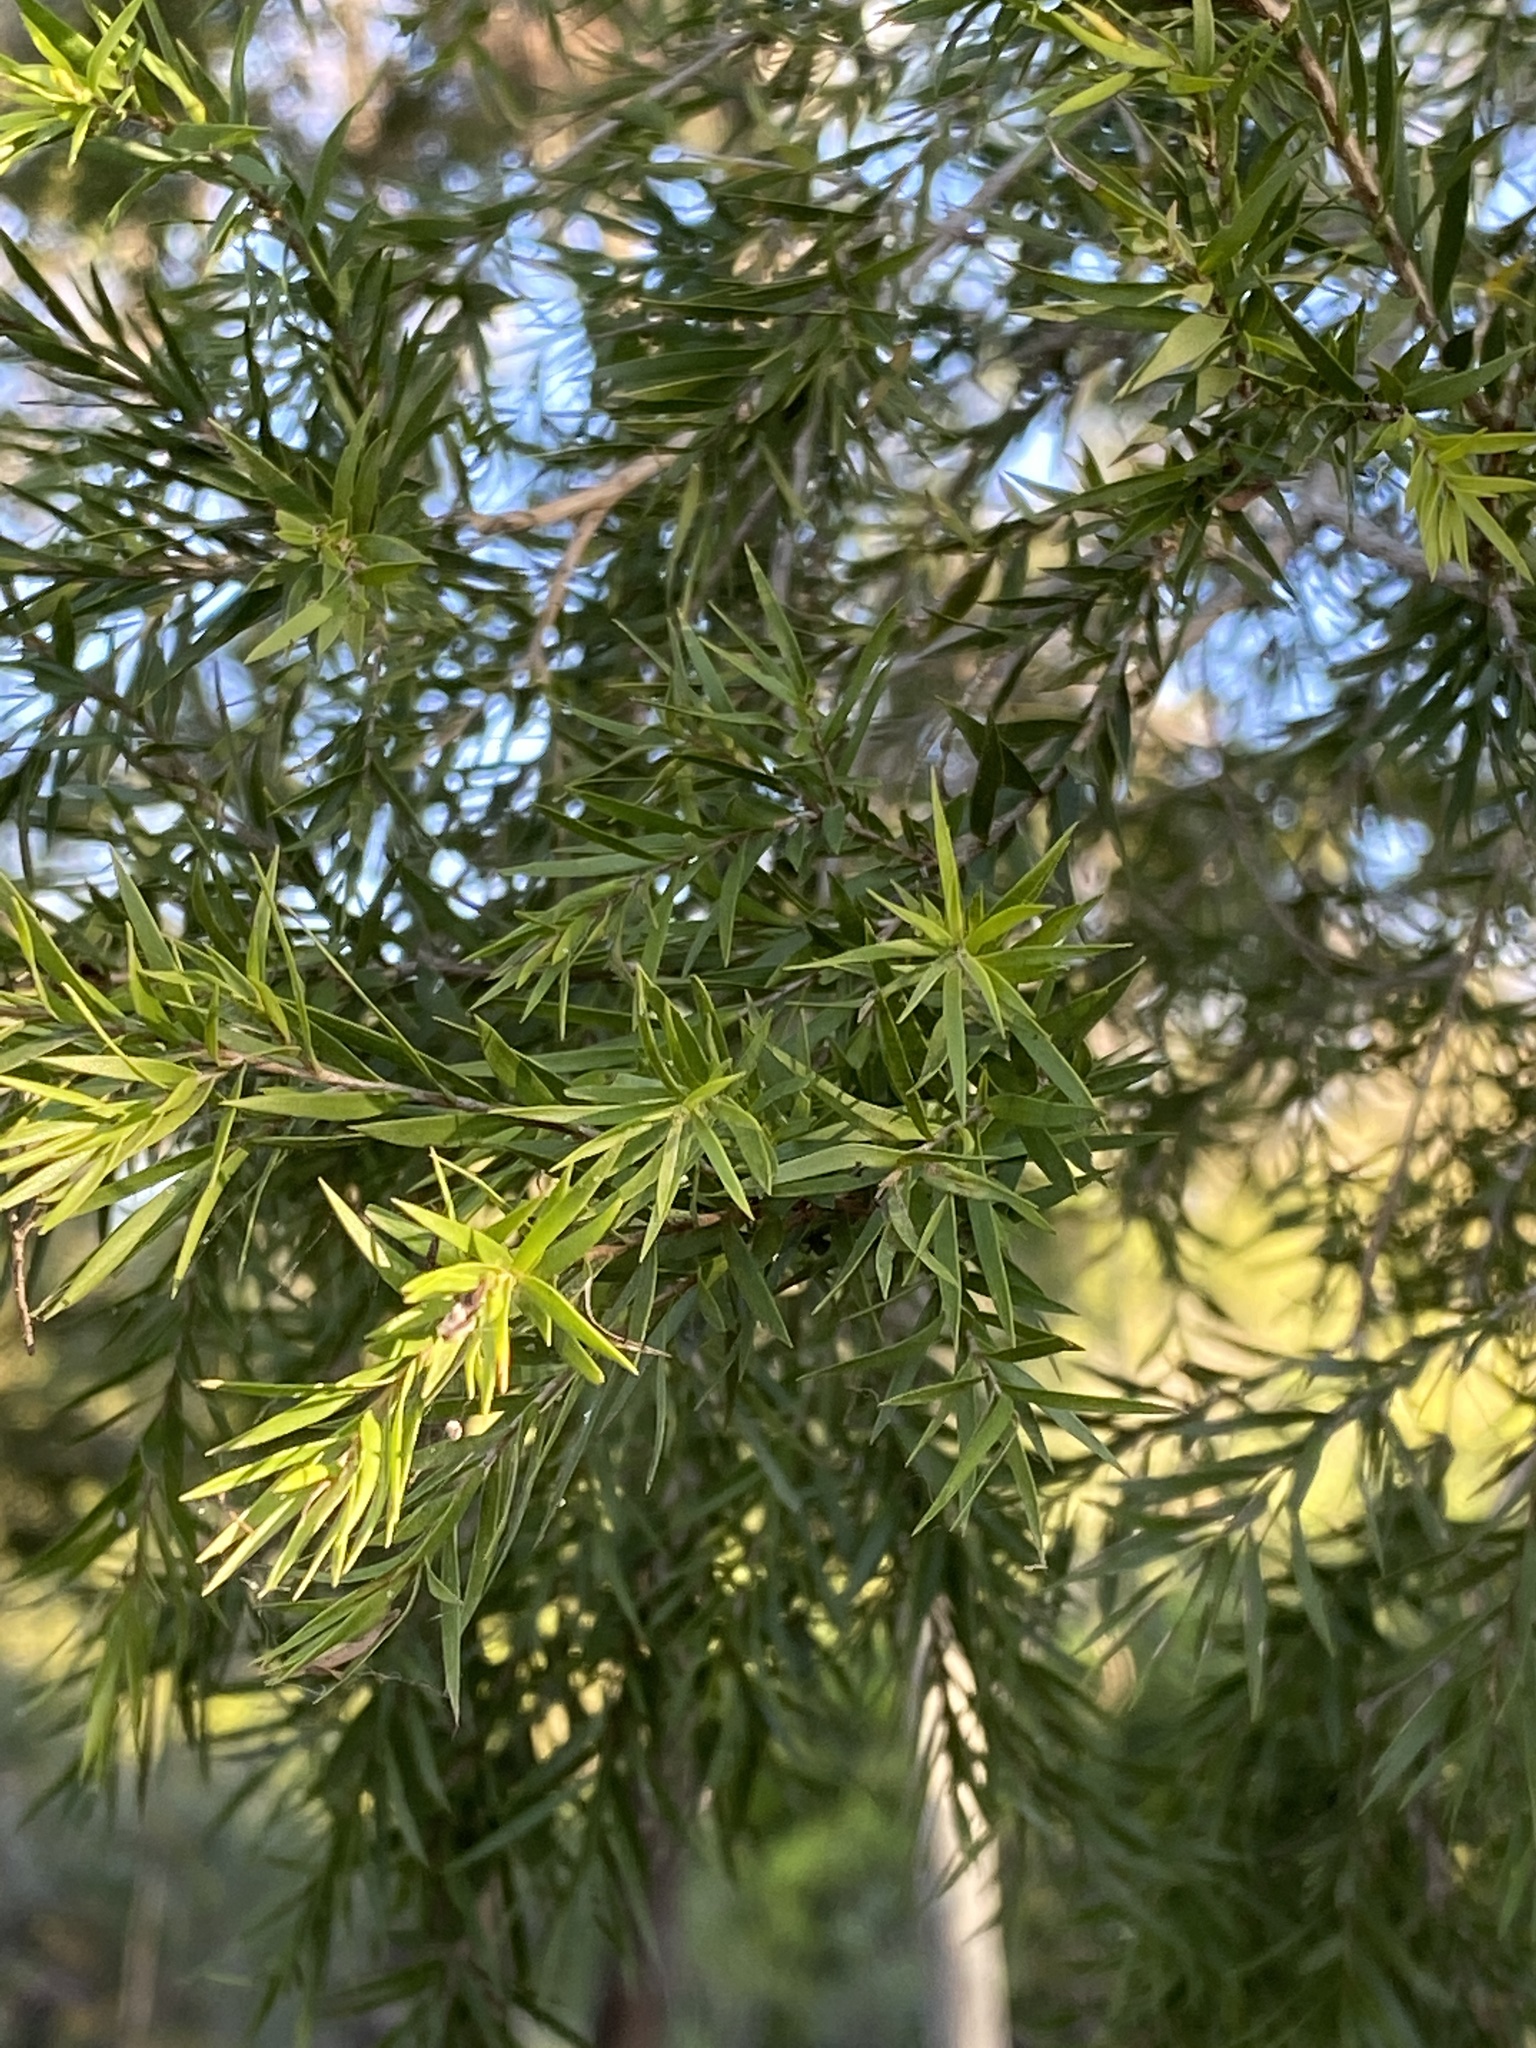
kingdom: Plantae
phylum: Tracheophyta
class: Magnoliopsida
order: Myrtales
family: Myrtaceae
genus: Melaleuca
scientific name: Melaleuca bracteata
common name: Black tea-tree
